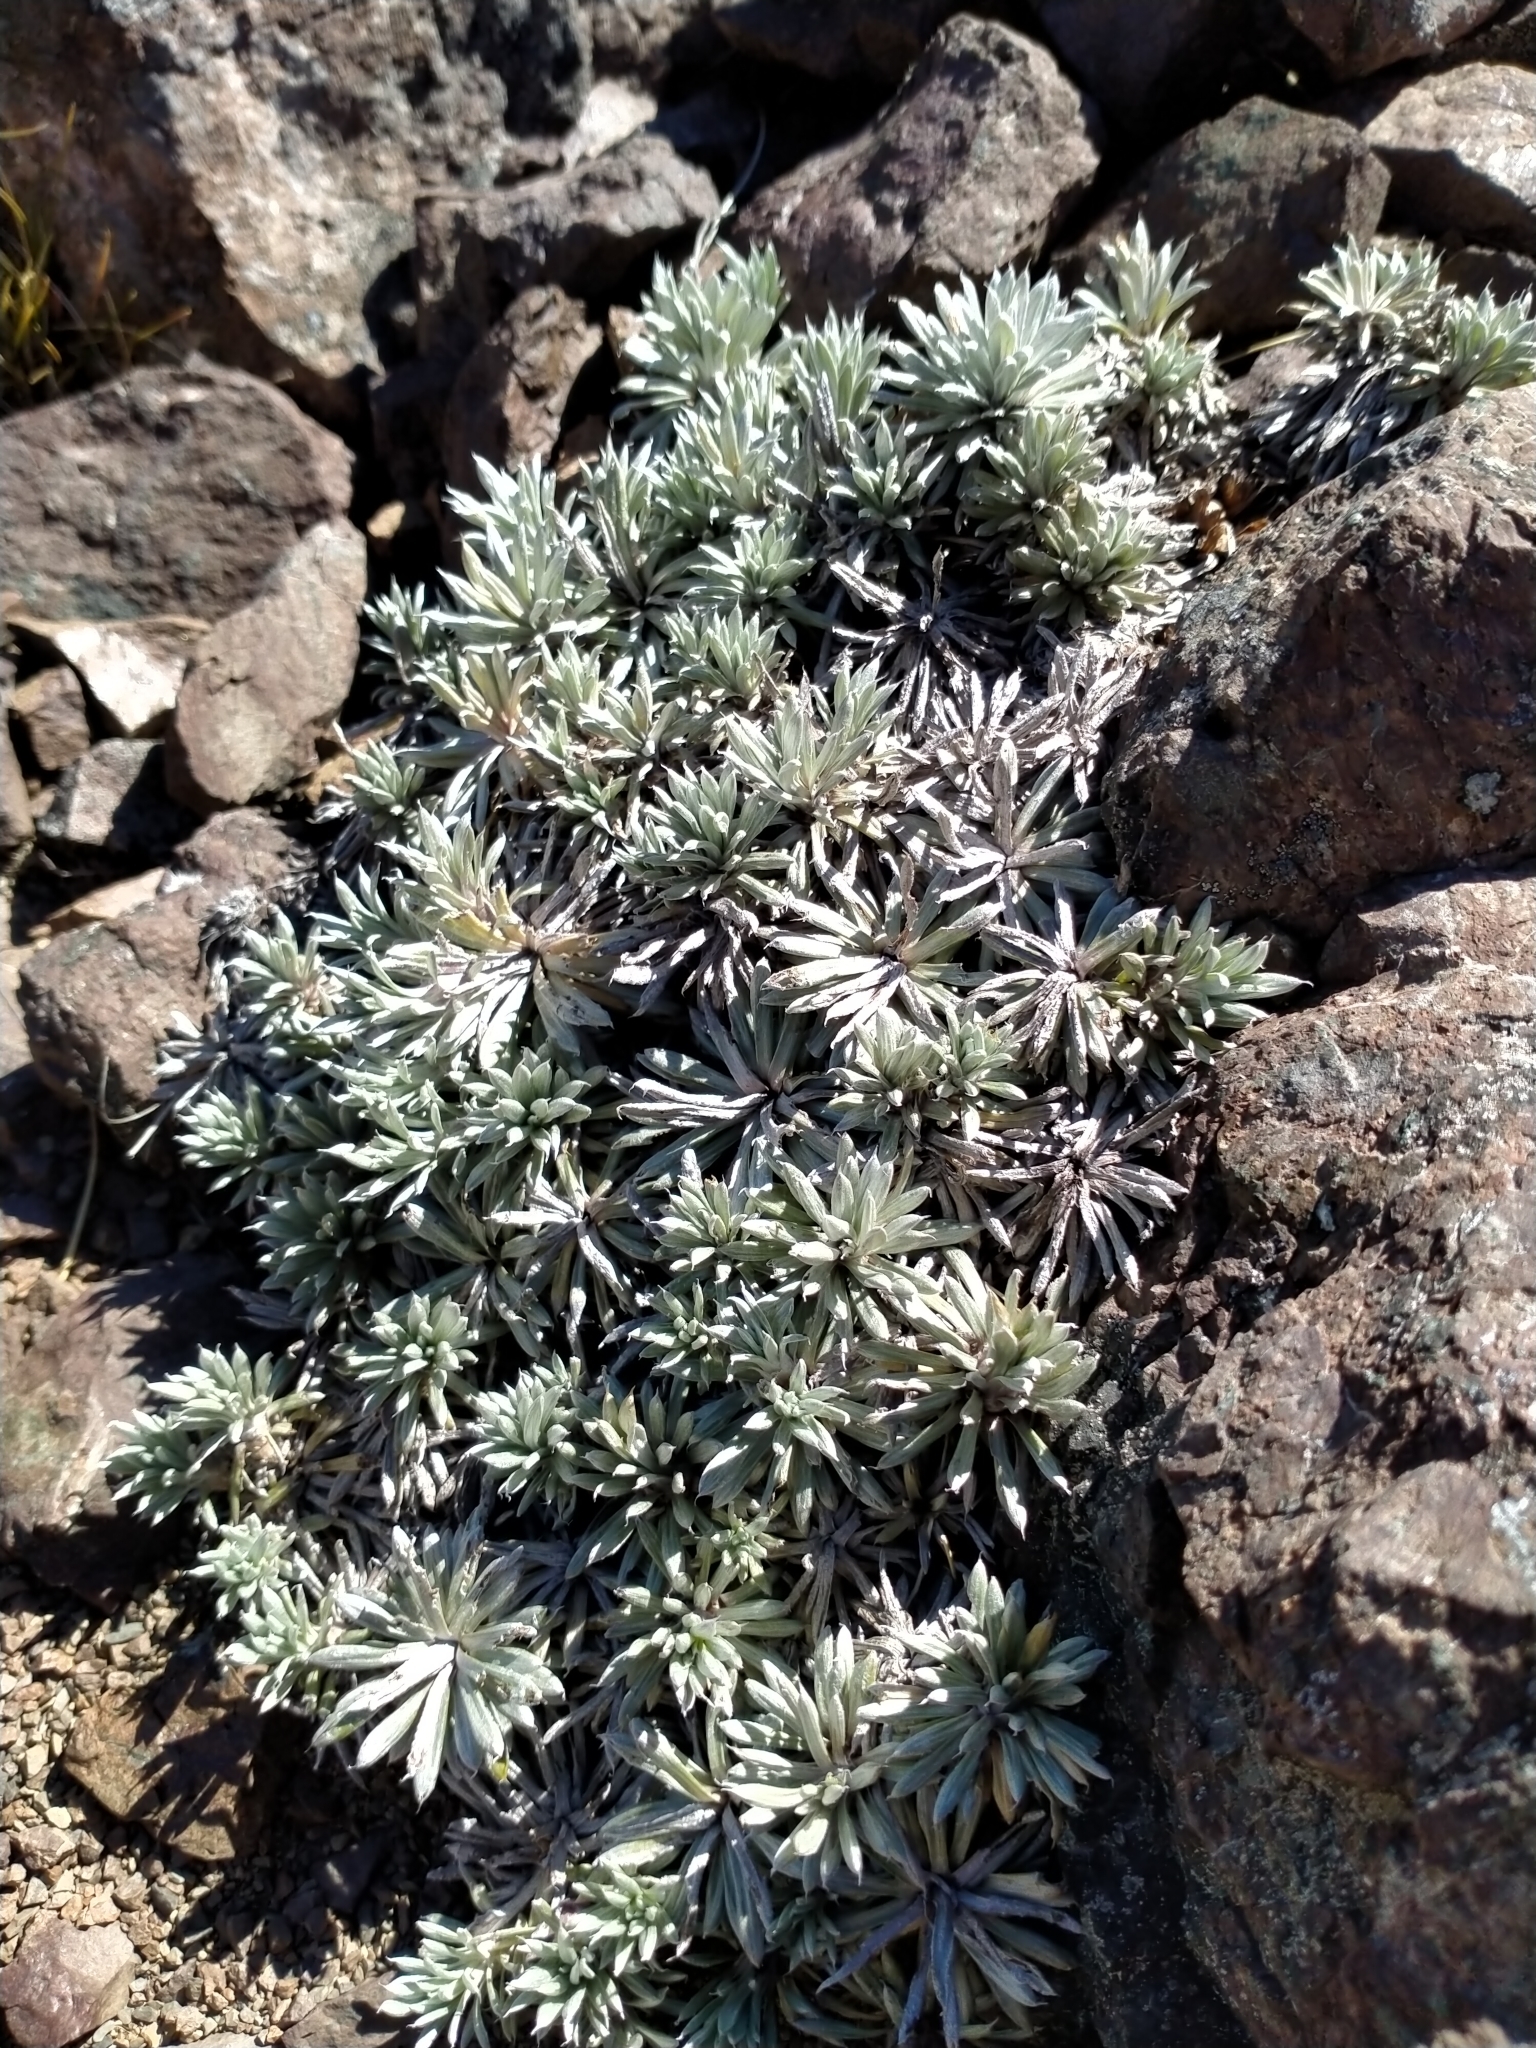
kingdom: Plantae
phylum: Tracheophyta
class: Magnoliopsida
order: Asterales
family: Asteraceae
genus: Celmisia
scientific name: Celmisia hectorii
